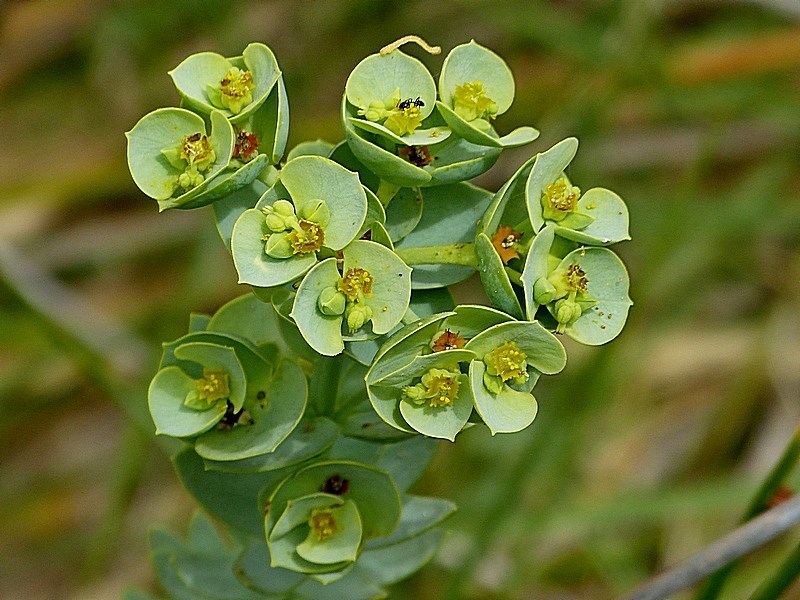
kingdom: Plantae
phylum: Tracheophyta
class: Magnoliopsida
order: Malpighiales
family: Euphorbiaceae
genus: Euphorbia
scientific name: Euphorbia paralias
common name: Sea spurge
